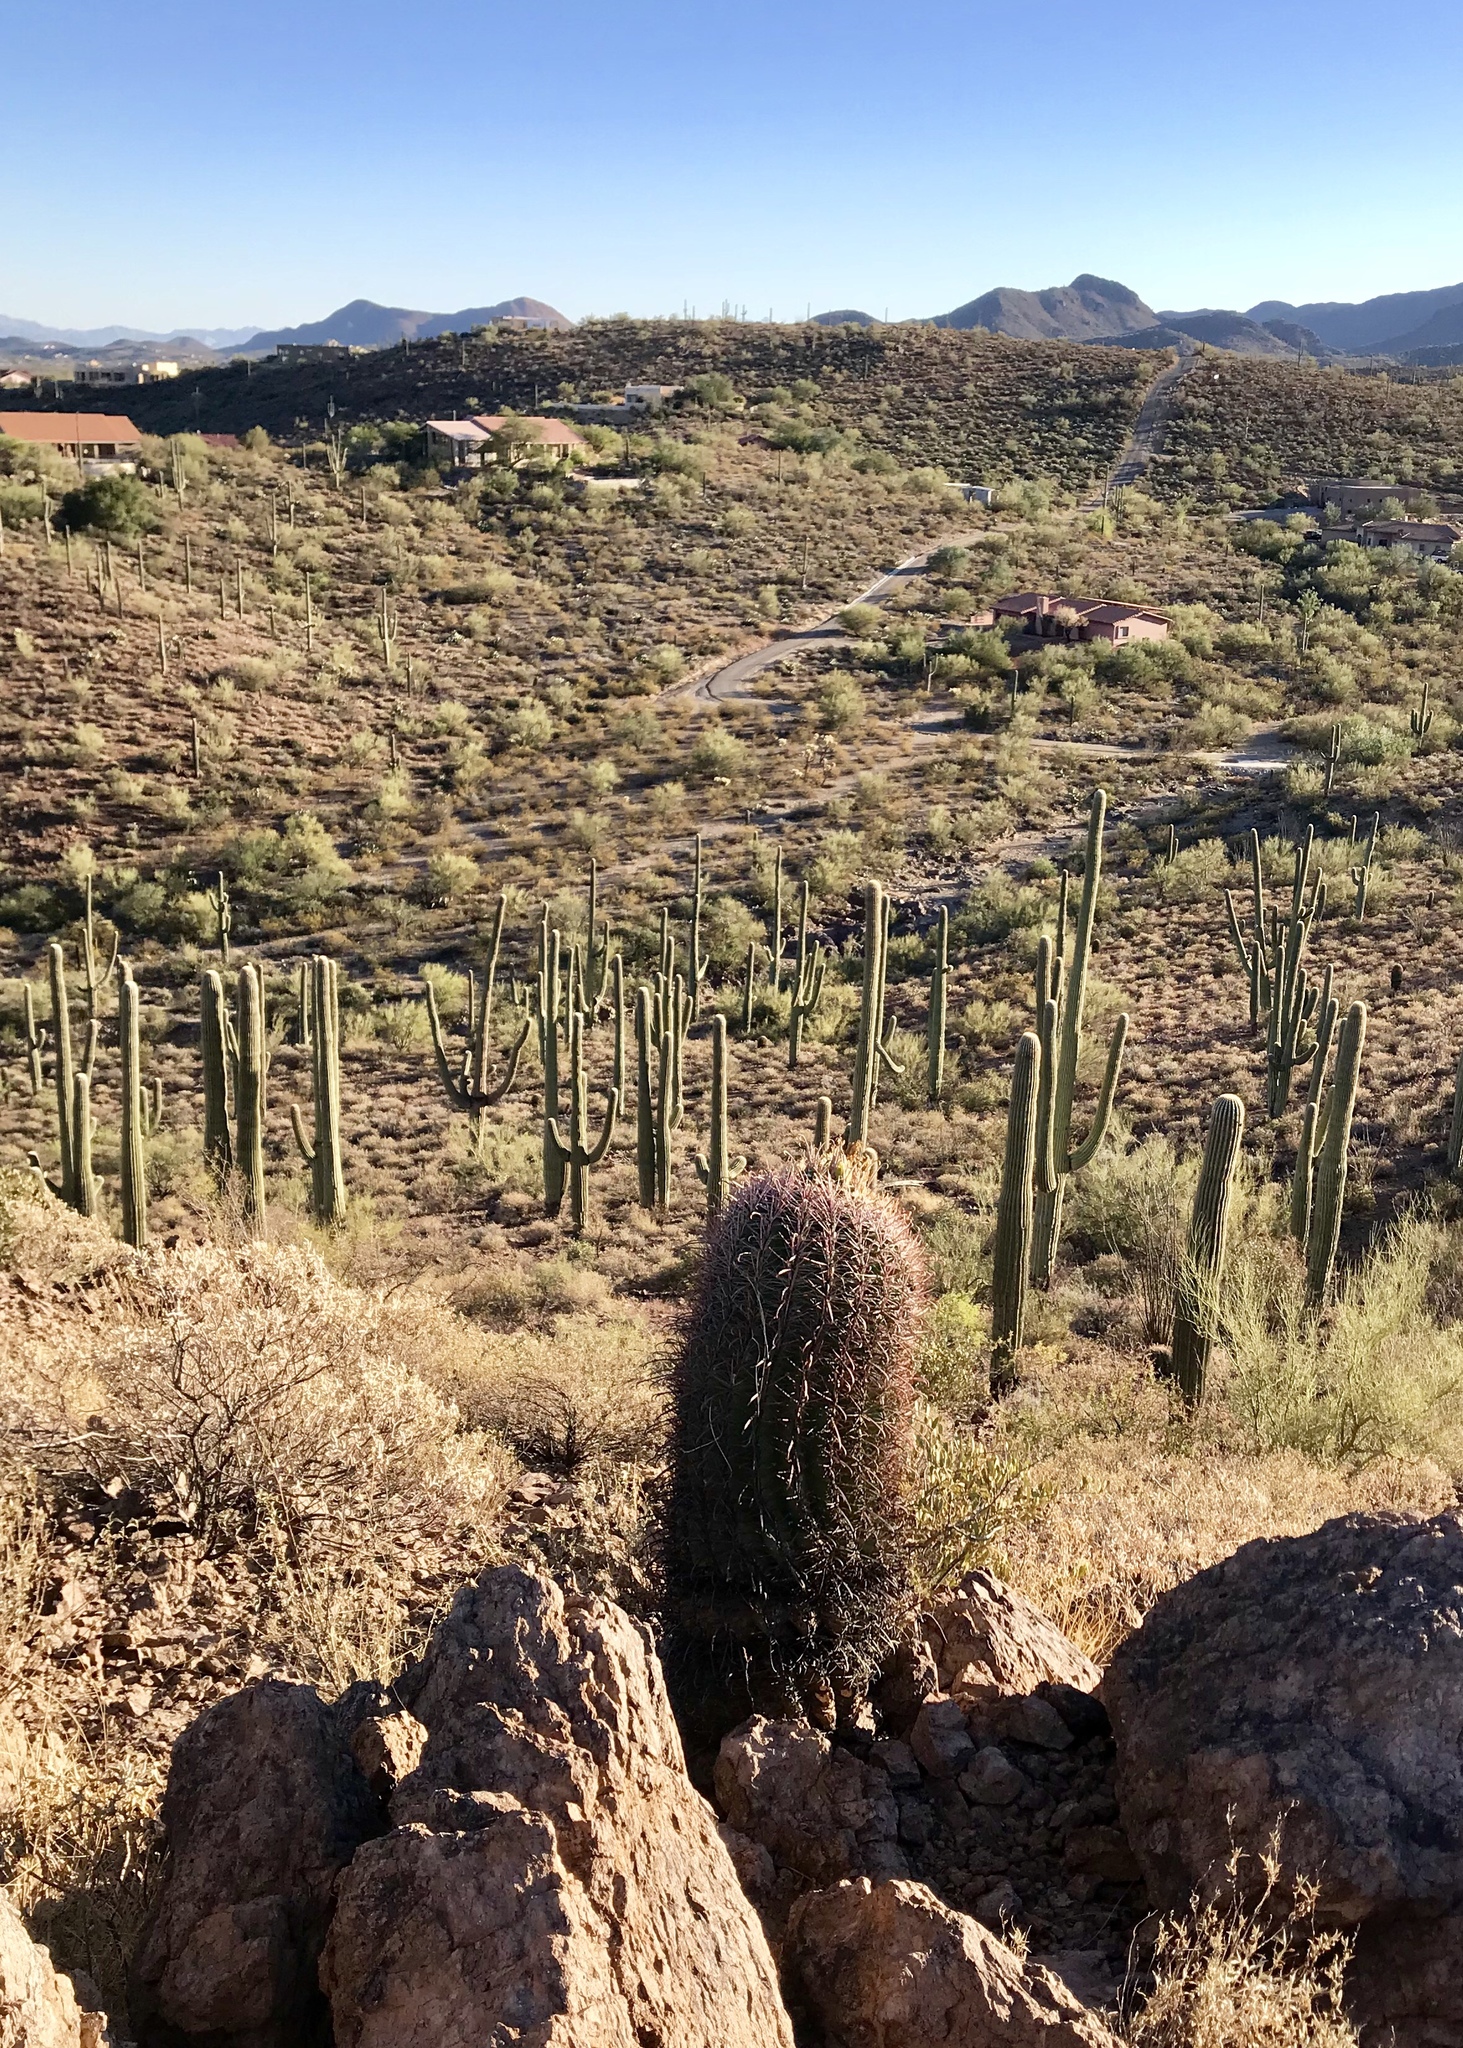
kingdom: Plantae
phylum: Tracheophyta
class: Magnoliopsida
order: Caryophyllales
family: Cactaceae
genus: Ferocactus
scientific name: Ferocactus wislizeni
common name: Candy barrel cactus
